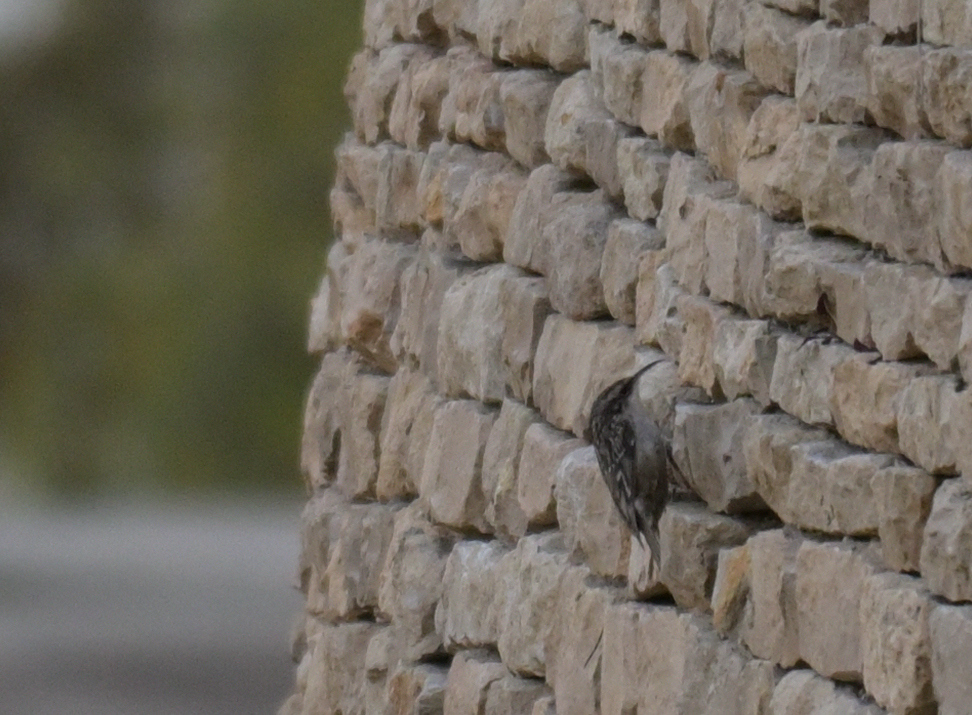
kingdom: Animalia
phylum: Chordata
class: Aves
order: Passeriformes
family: Certhiidae
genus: Certhia
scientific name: Certhia brachydactyla
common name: Short-toed treecreeper
